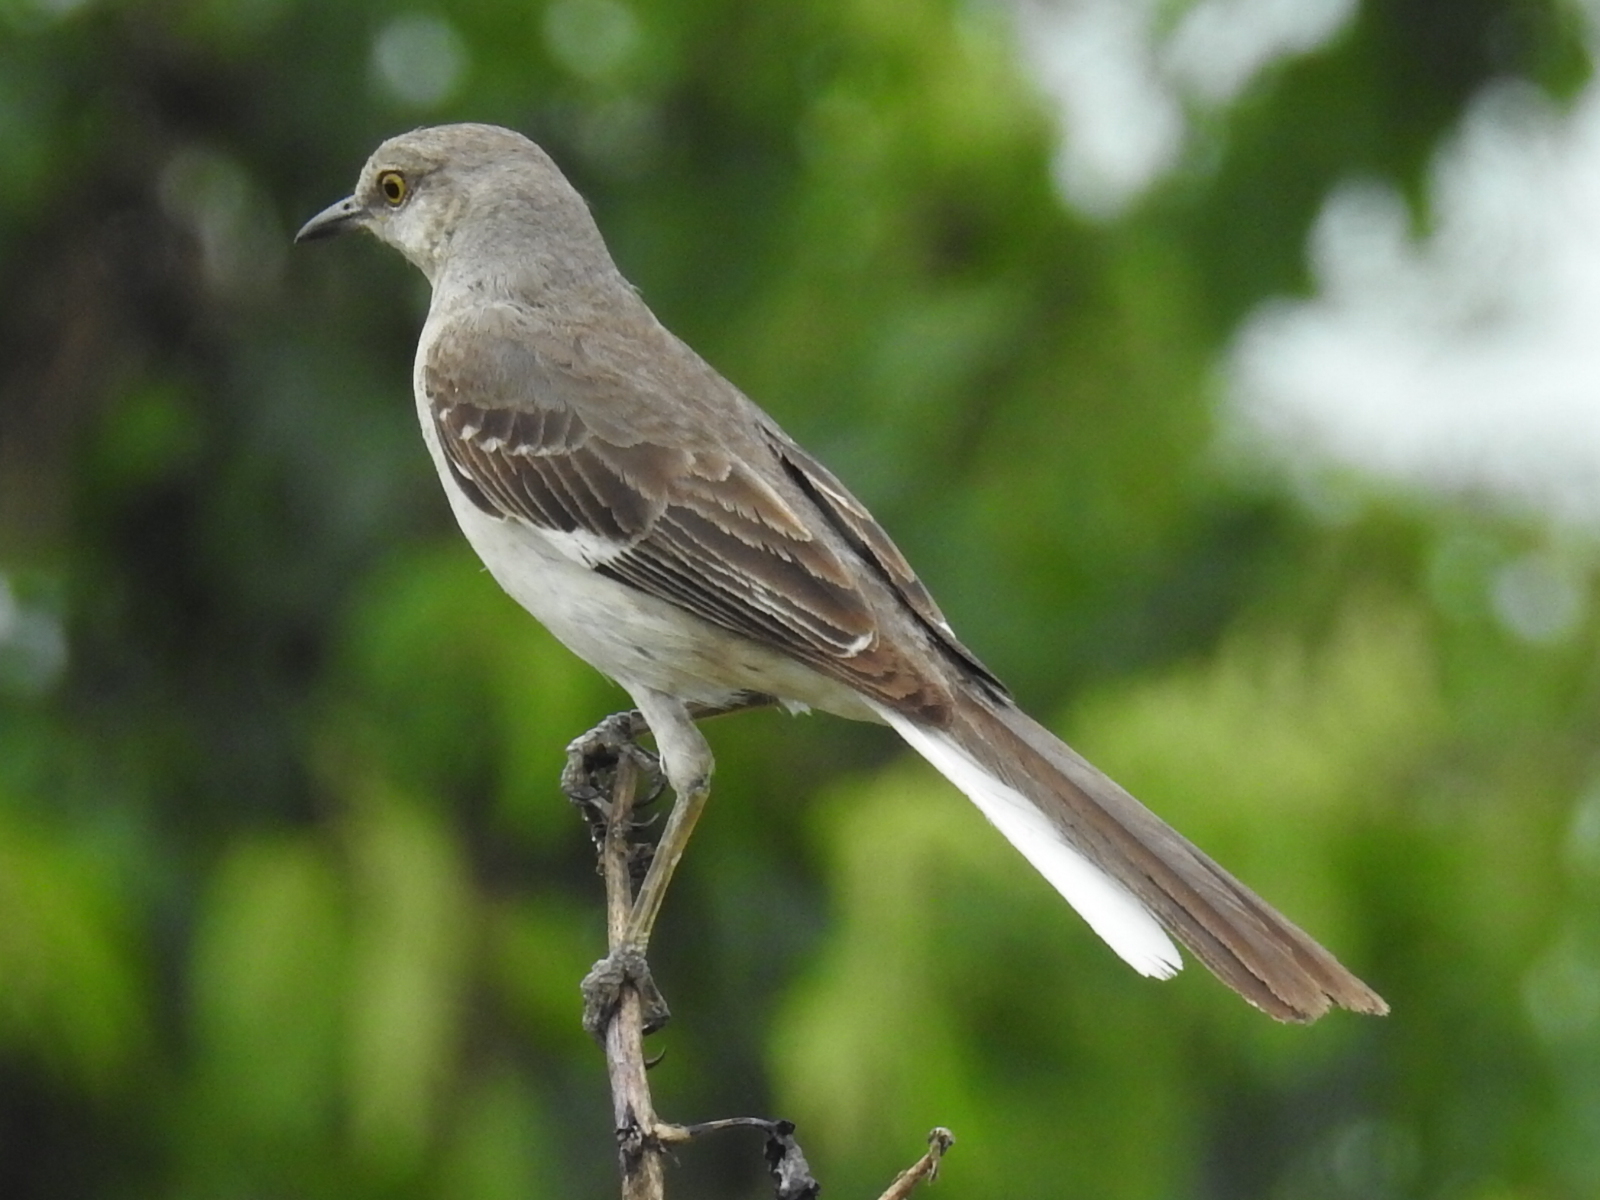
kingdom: Animalia
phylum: Chordata
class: Aves
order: Passeriformes
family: Mimidae
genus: Mimus
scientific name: Mimus polyglottos
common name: Northern mockingbird
